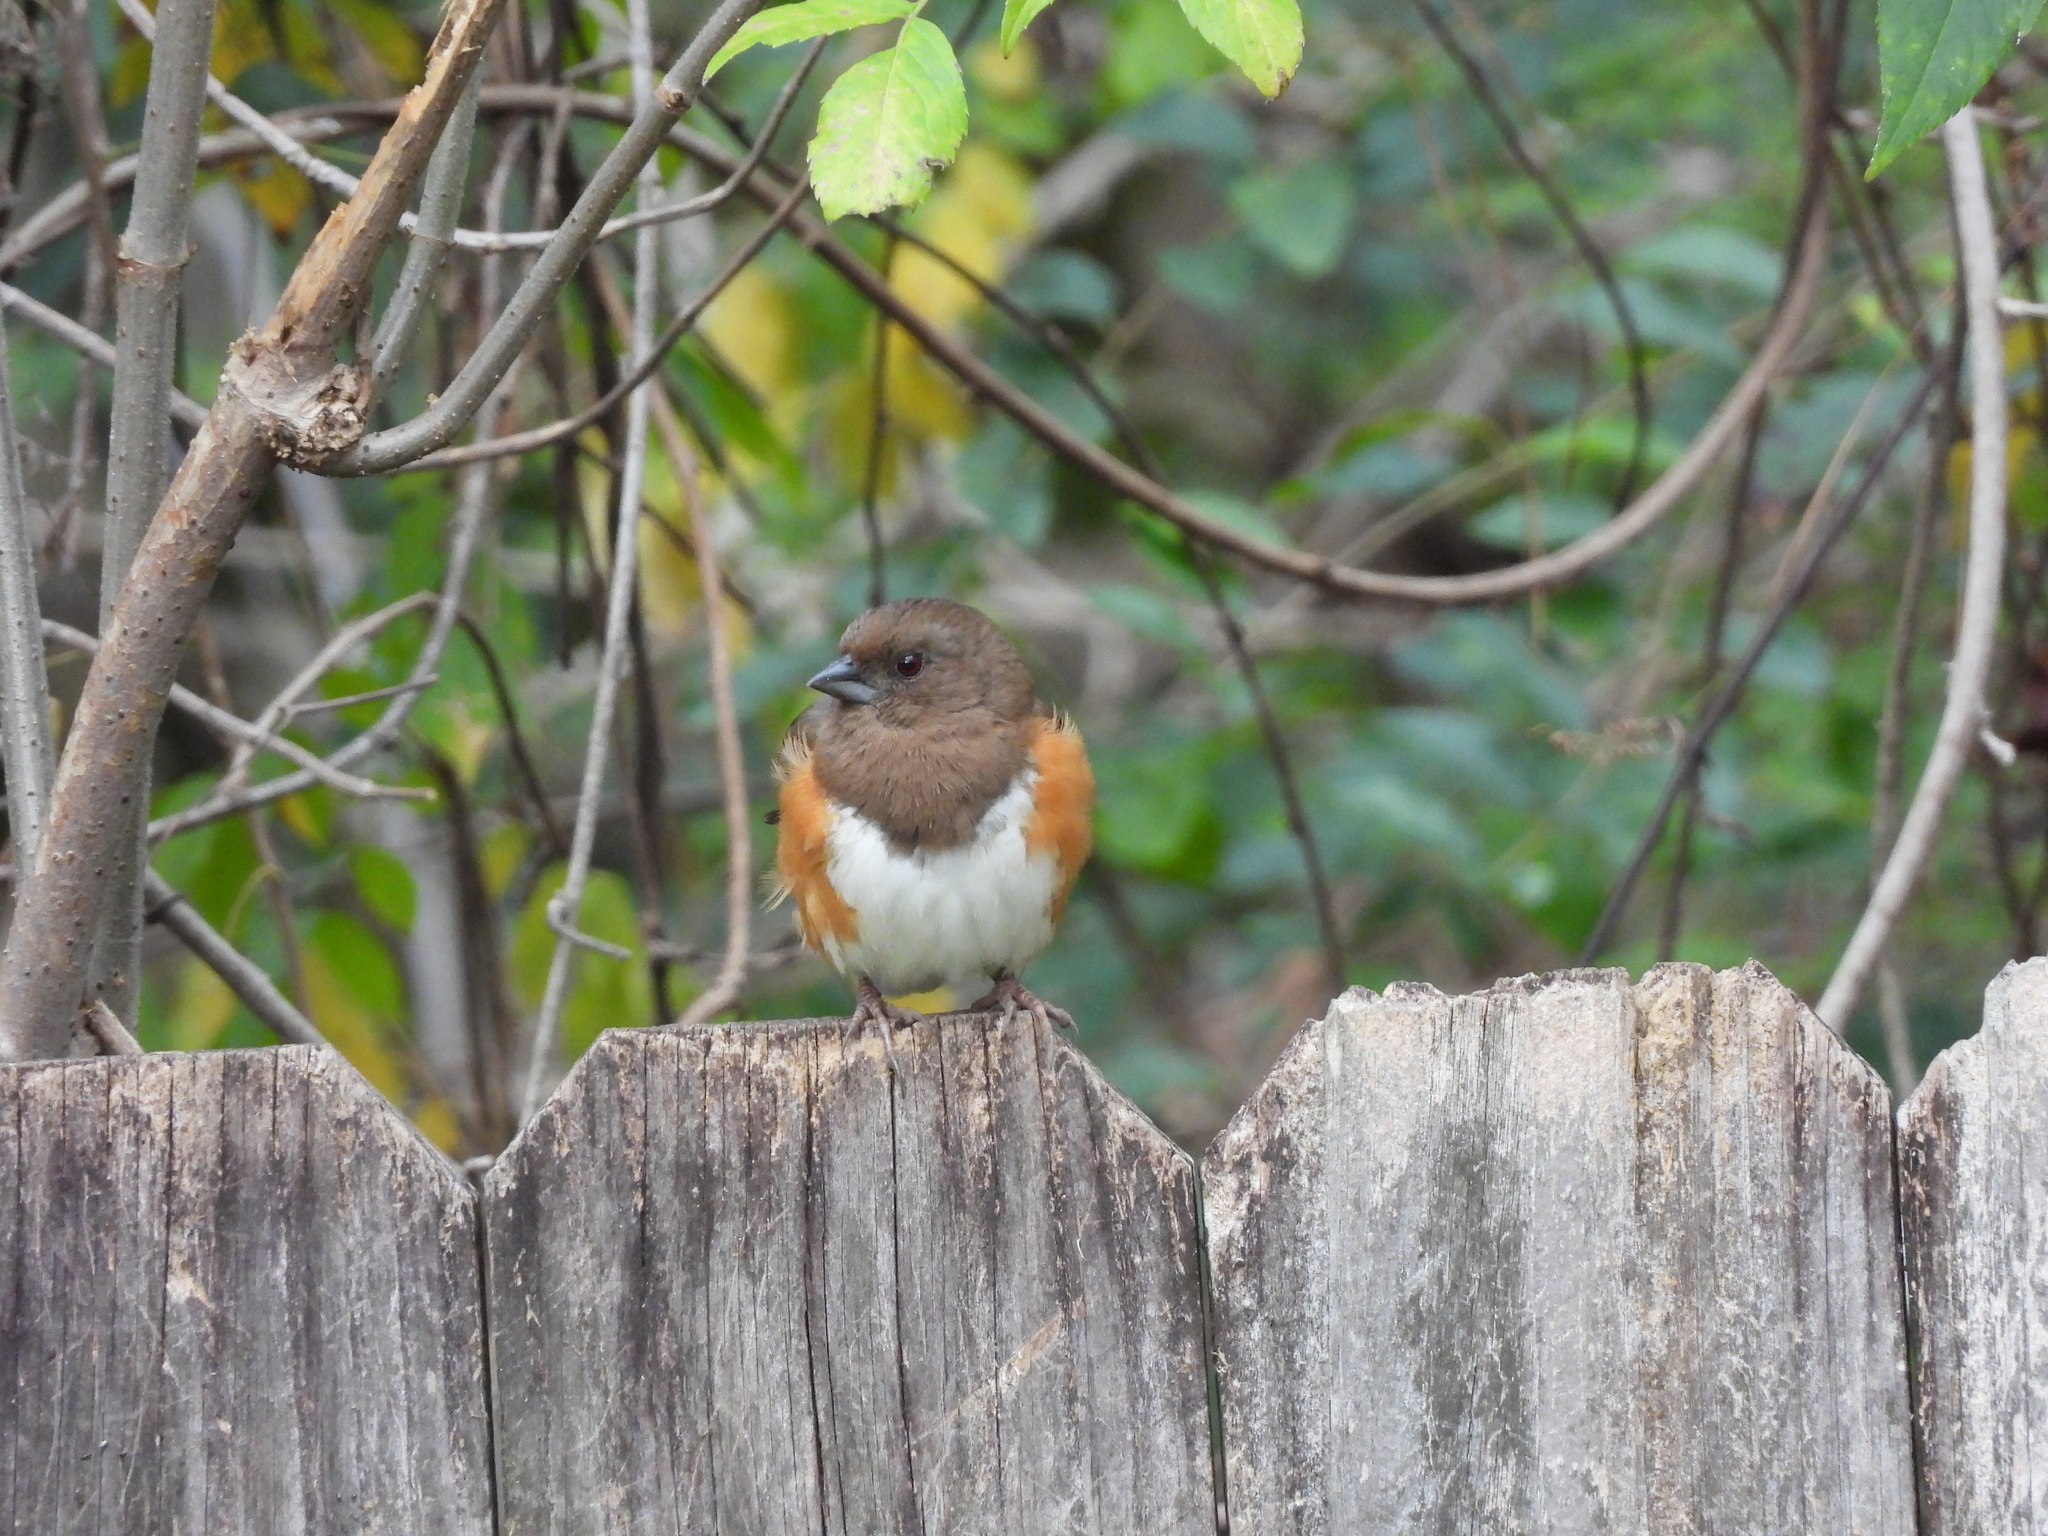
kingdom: Animalia
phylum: Chordata
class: Aves
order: Passeriformes
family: Passerellidae
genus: Pipilo
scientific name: Pipilo erythrophthalmus
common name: Eastern towhee
